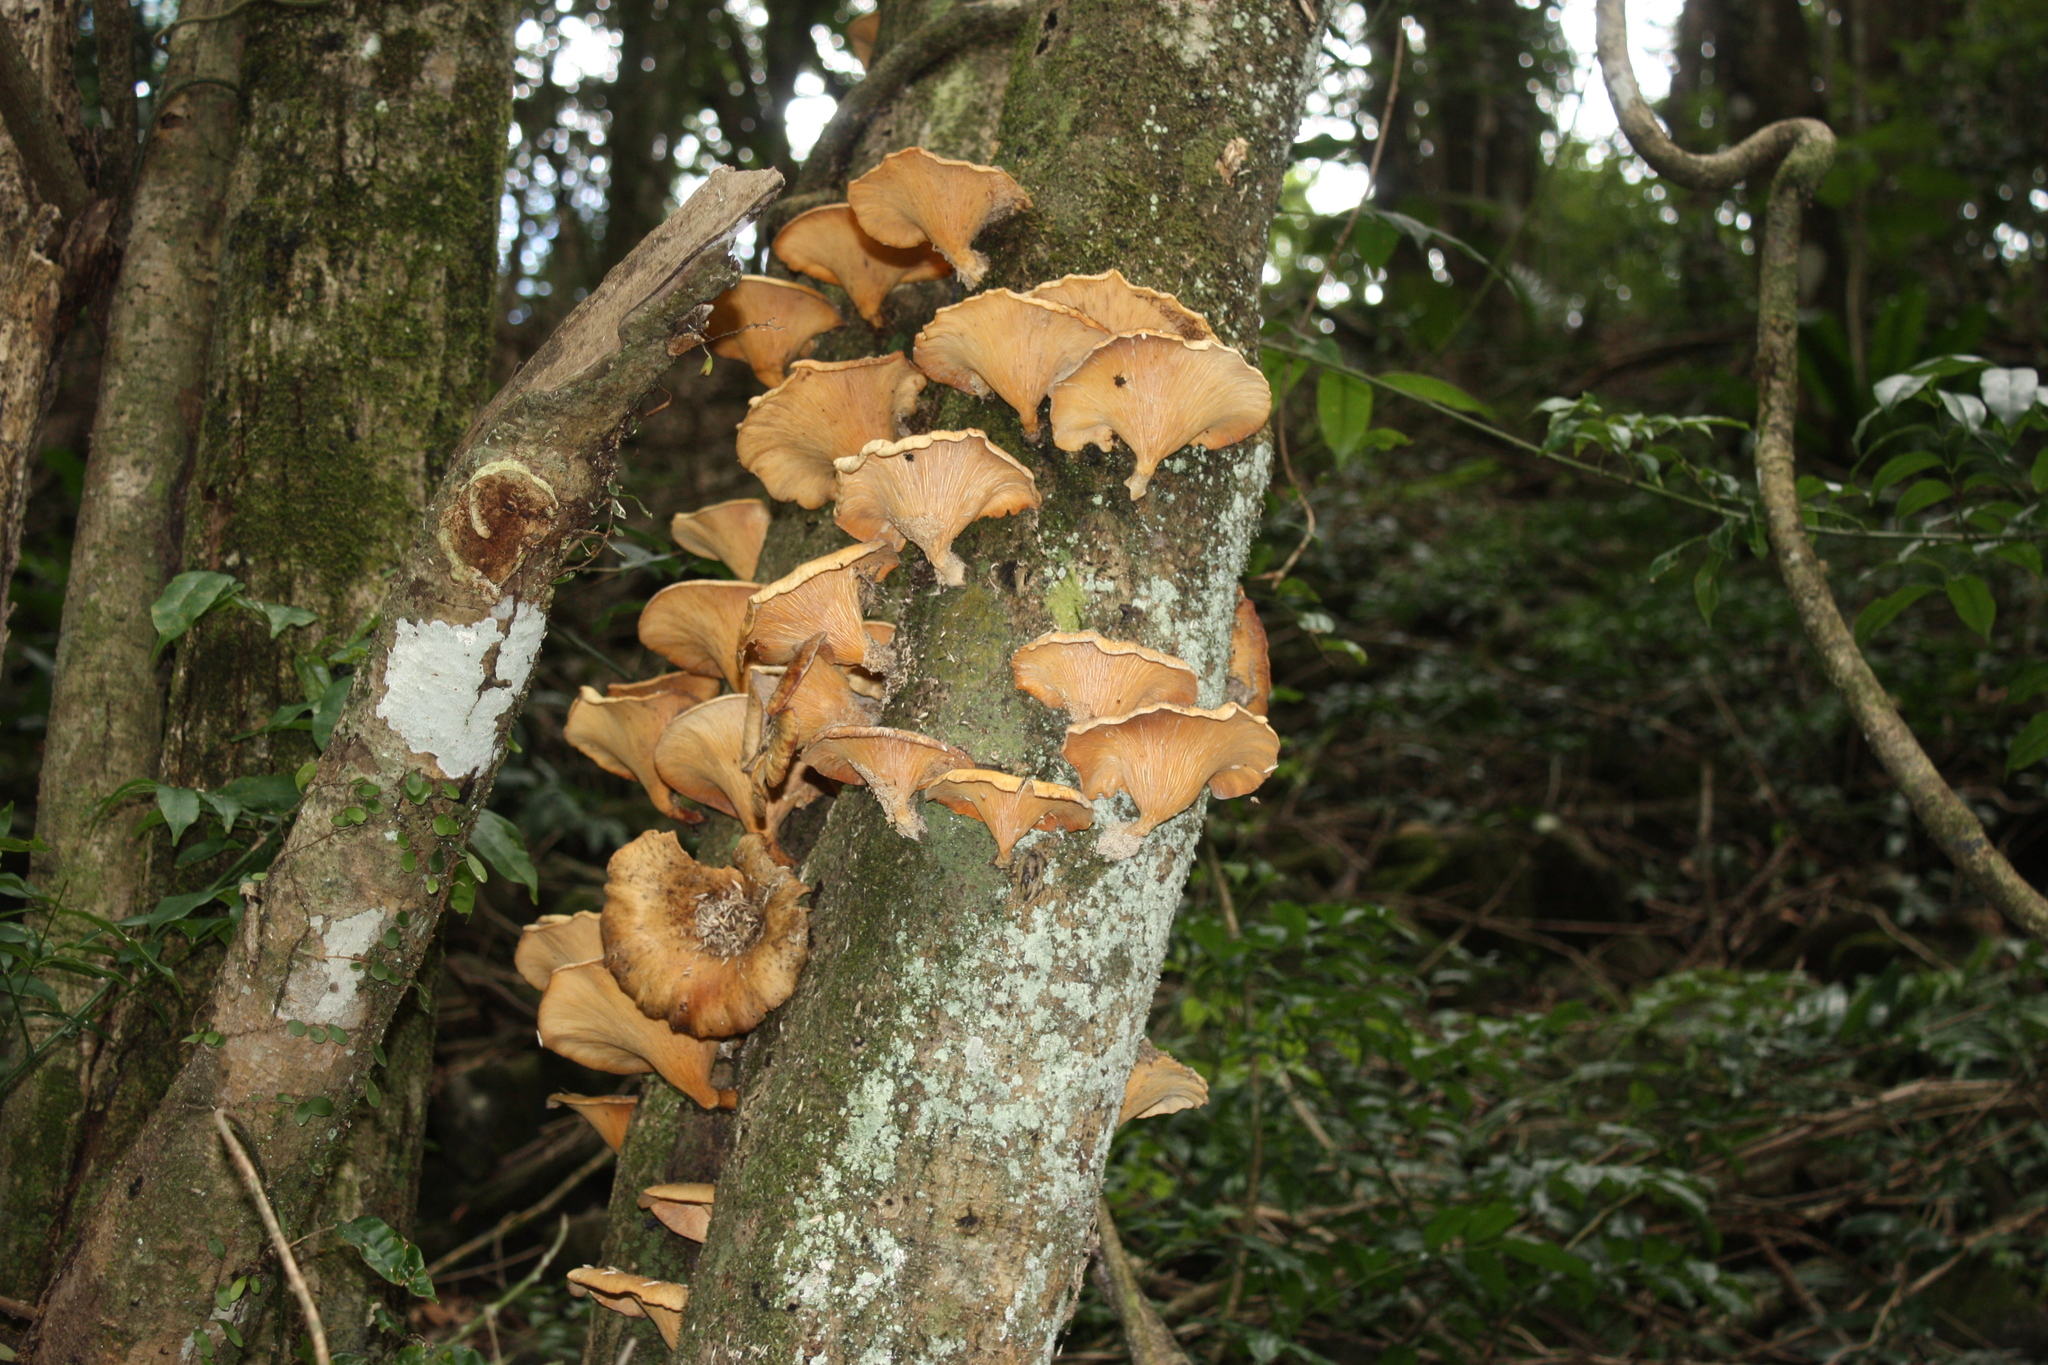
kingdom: Fungi
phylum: Basidiomycota
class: Agaricomycetes
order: Polyporales
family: Polyporaceae
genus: Lentinus
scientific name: Lentinus sajor-caju
